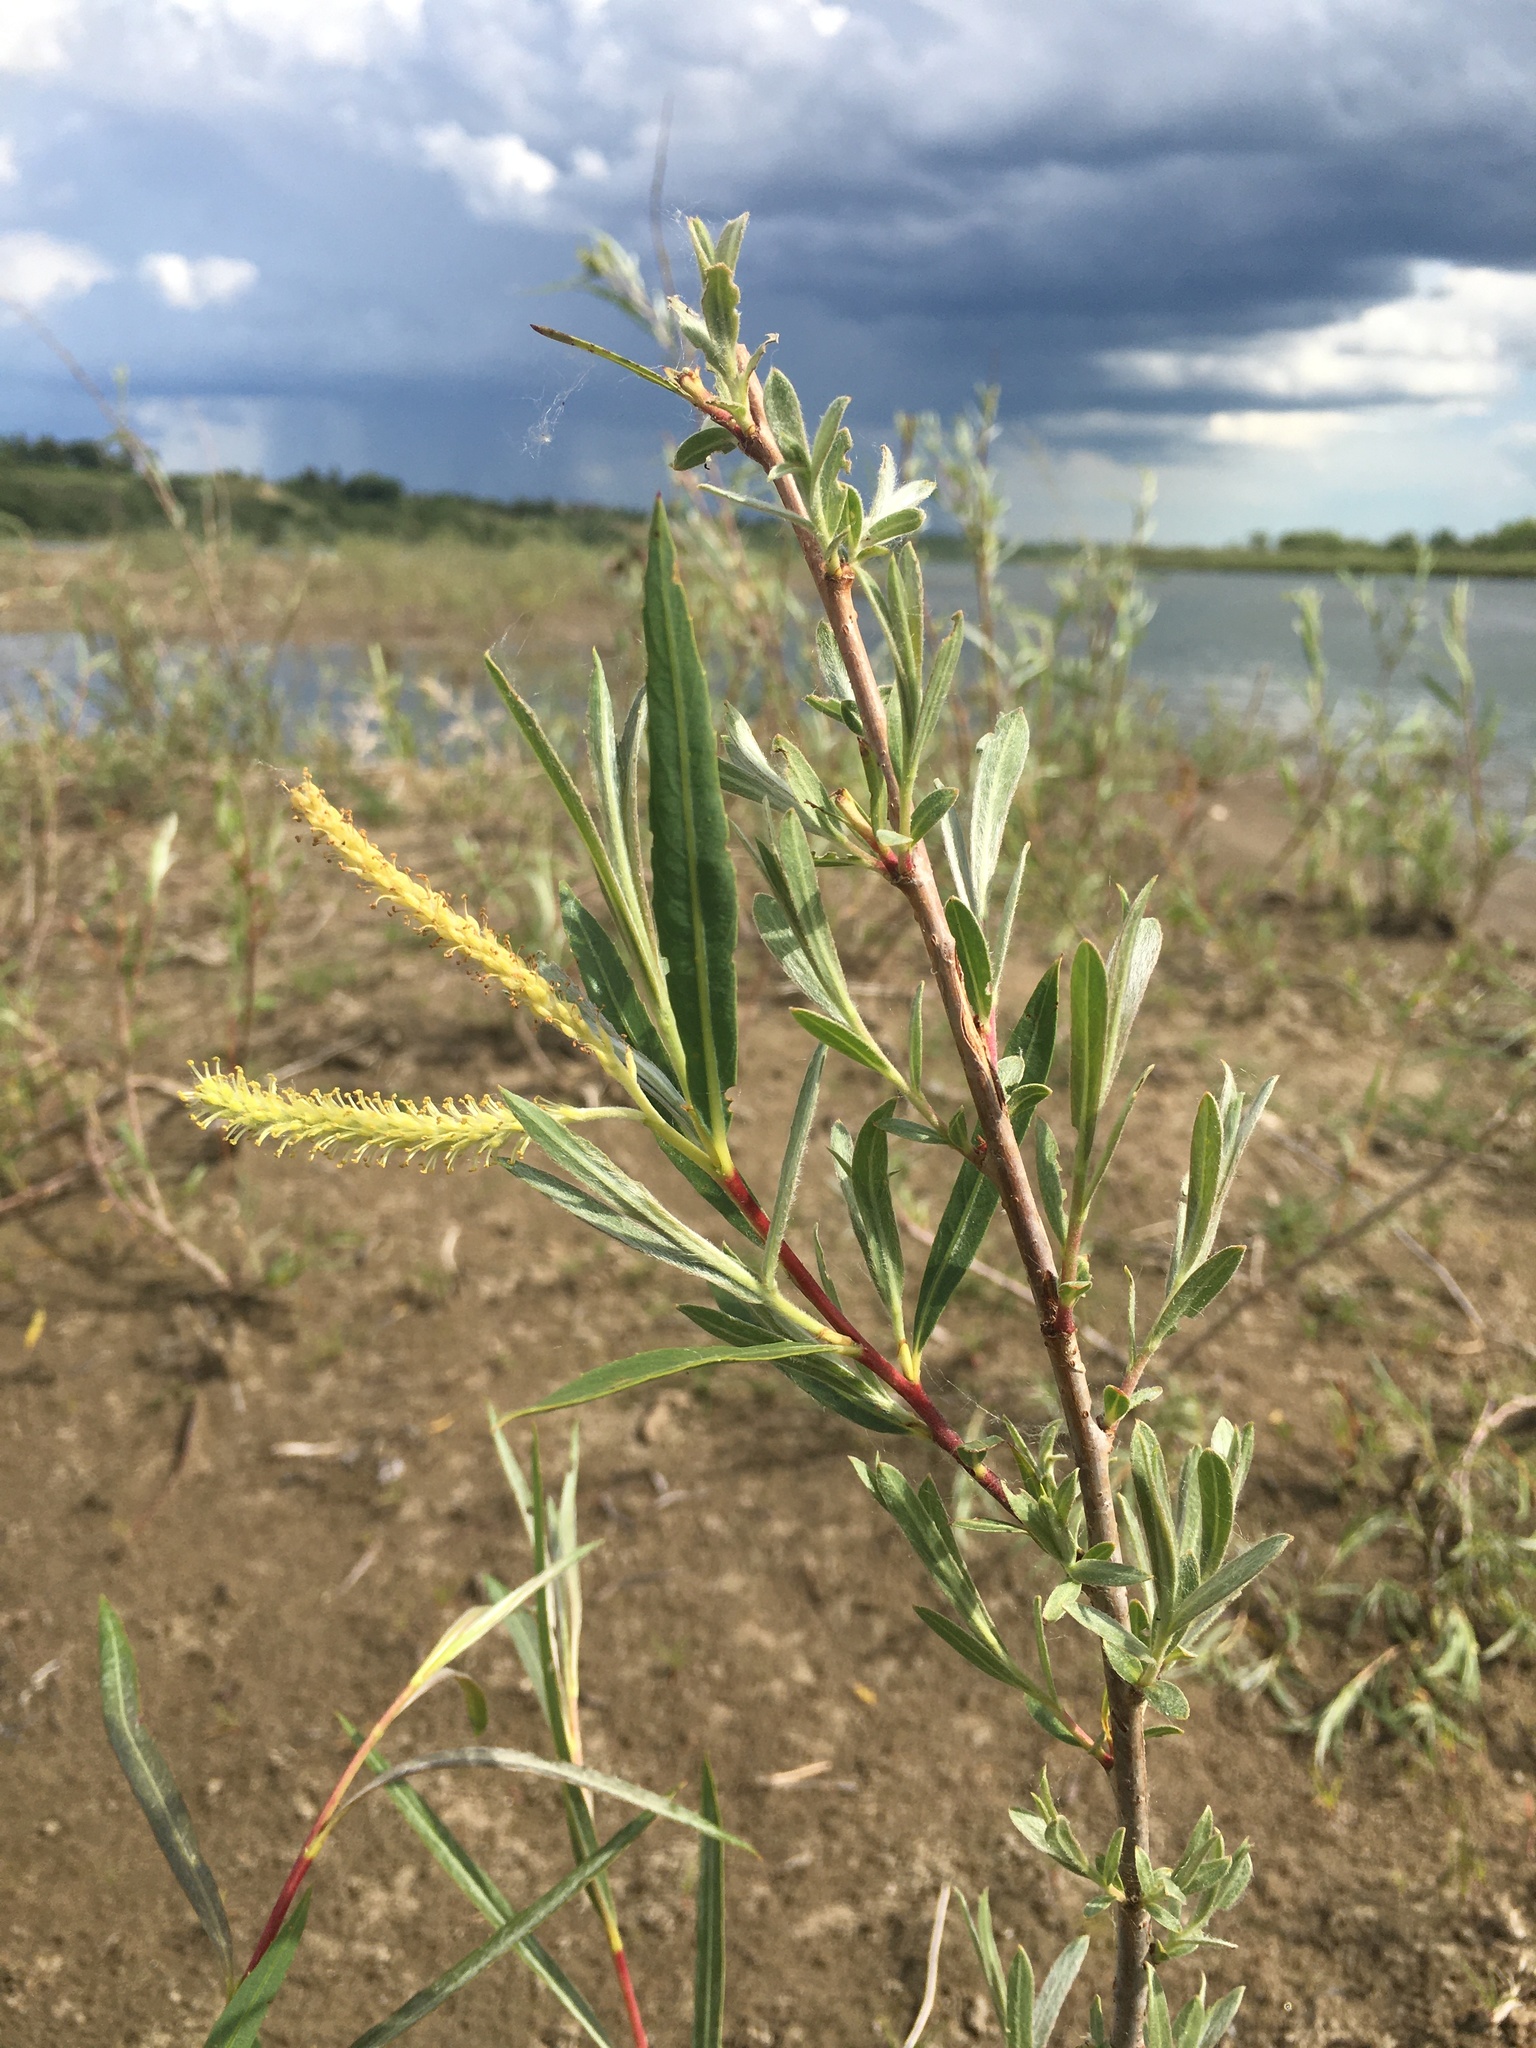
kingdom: Plantae
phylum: Tracheophyta
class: Magnoliopsida
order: Malpighiales
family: Salicaceae
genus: Salix
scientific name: Salix interior
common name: Sandbar willow
